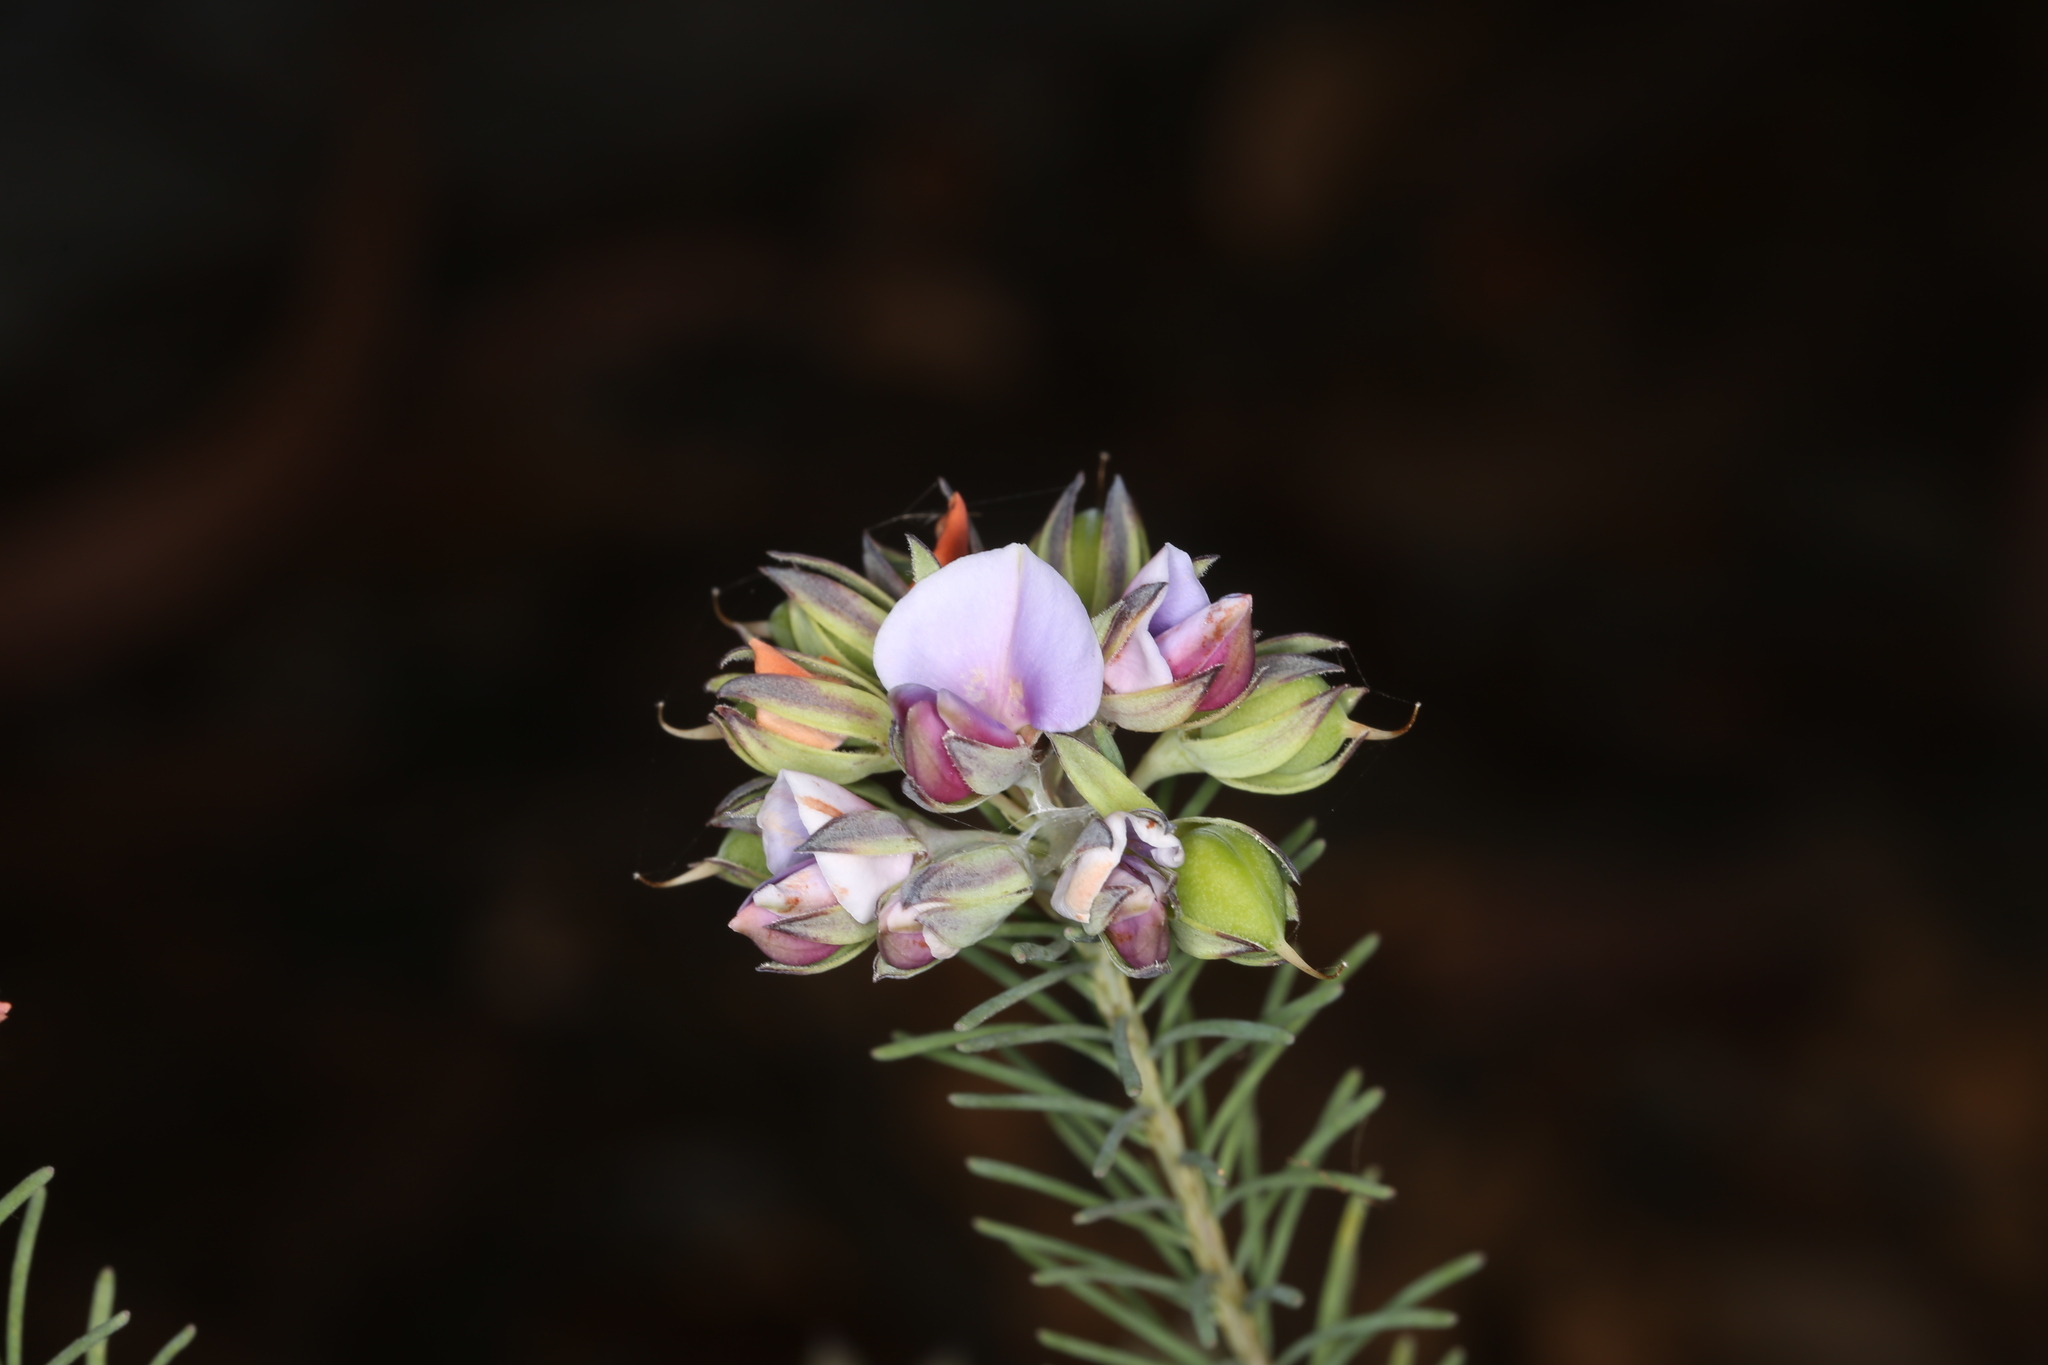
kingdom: Plantae
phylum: Tracheophyta
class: Magnoliopsida
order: Fabales
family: Fabaceae
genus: Gompholobium
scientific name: Gompholobium confertum
